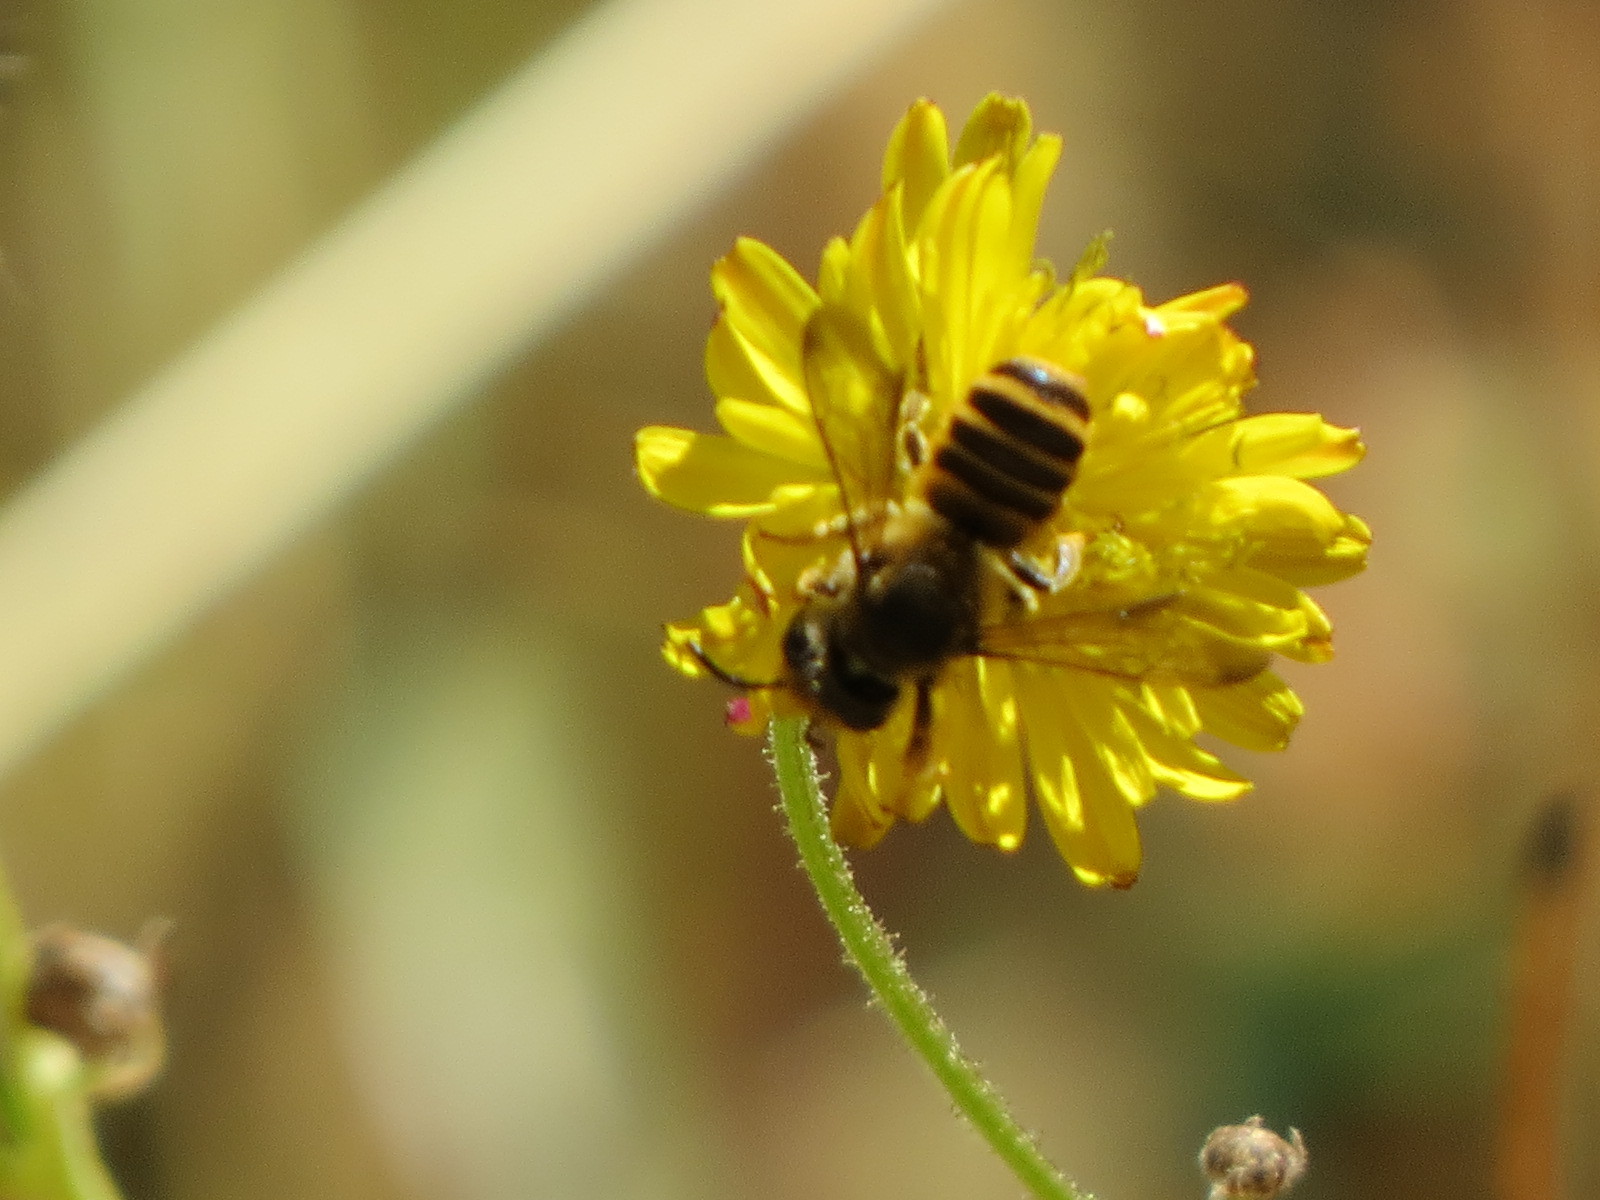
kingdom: Animalia
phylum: Arthropoda
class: Insecta
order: Hymenoptera
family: Megachilidae
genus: Megachile
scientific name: Megachile fidelis
